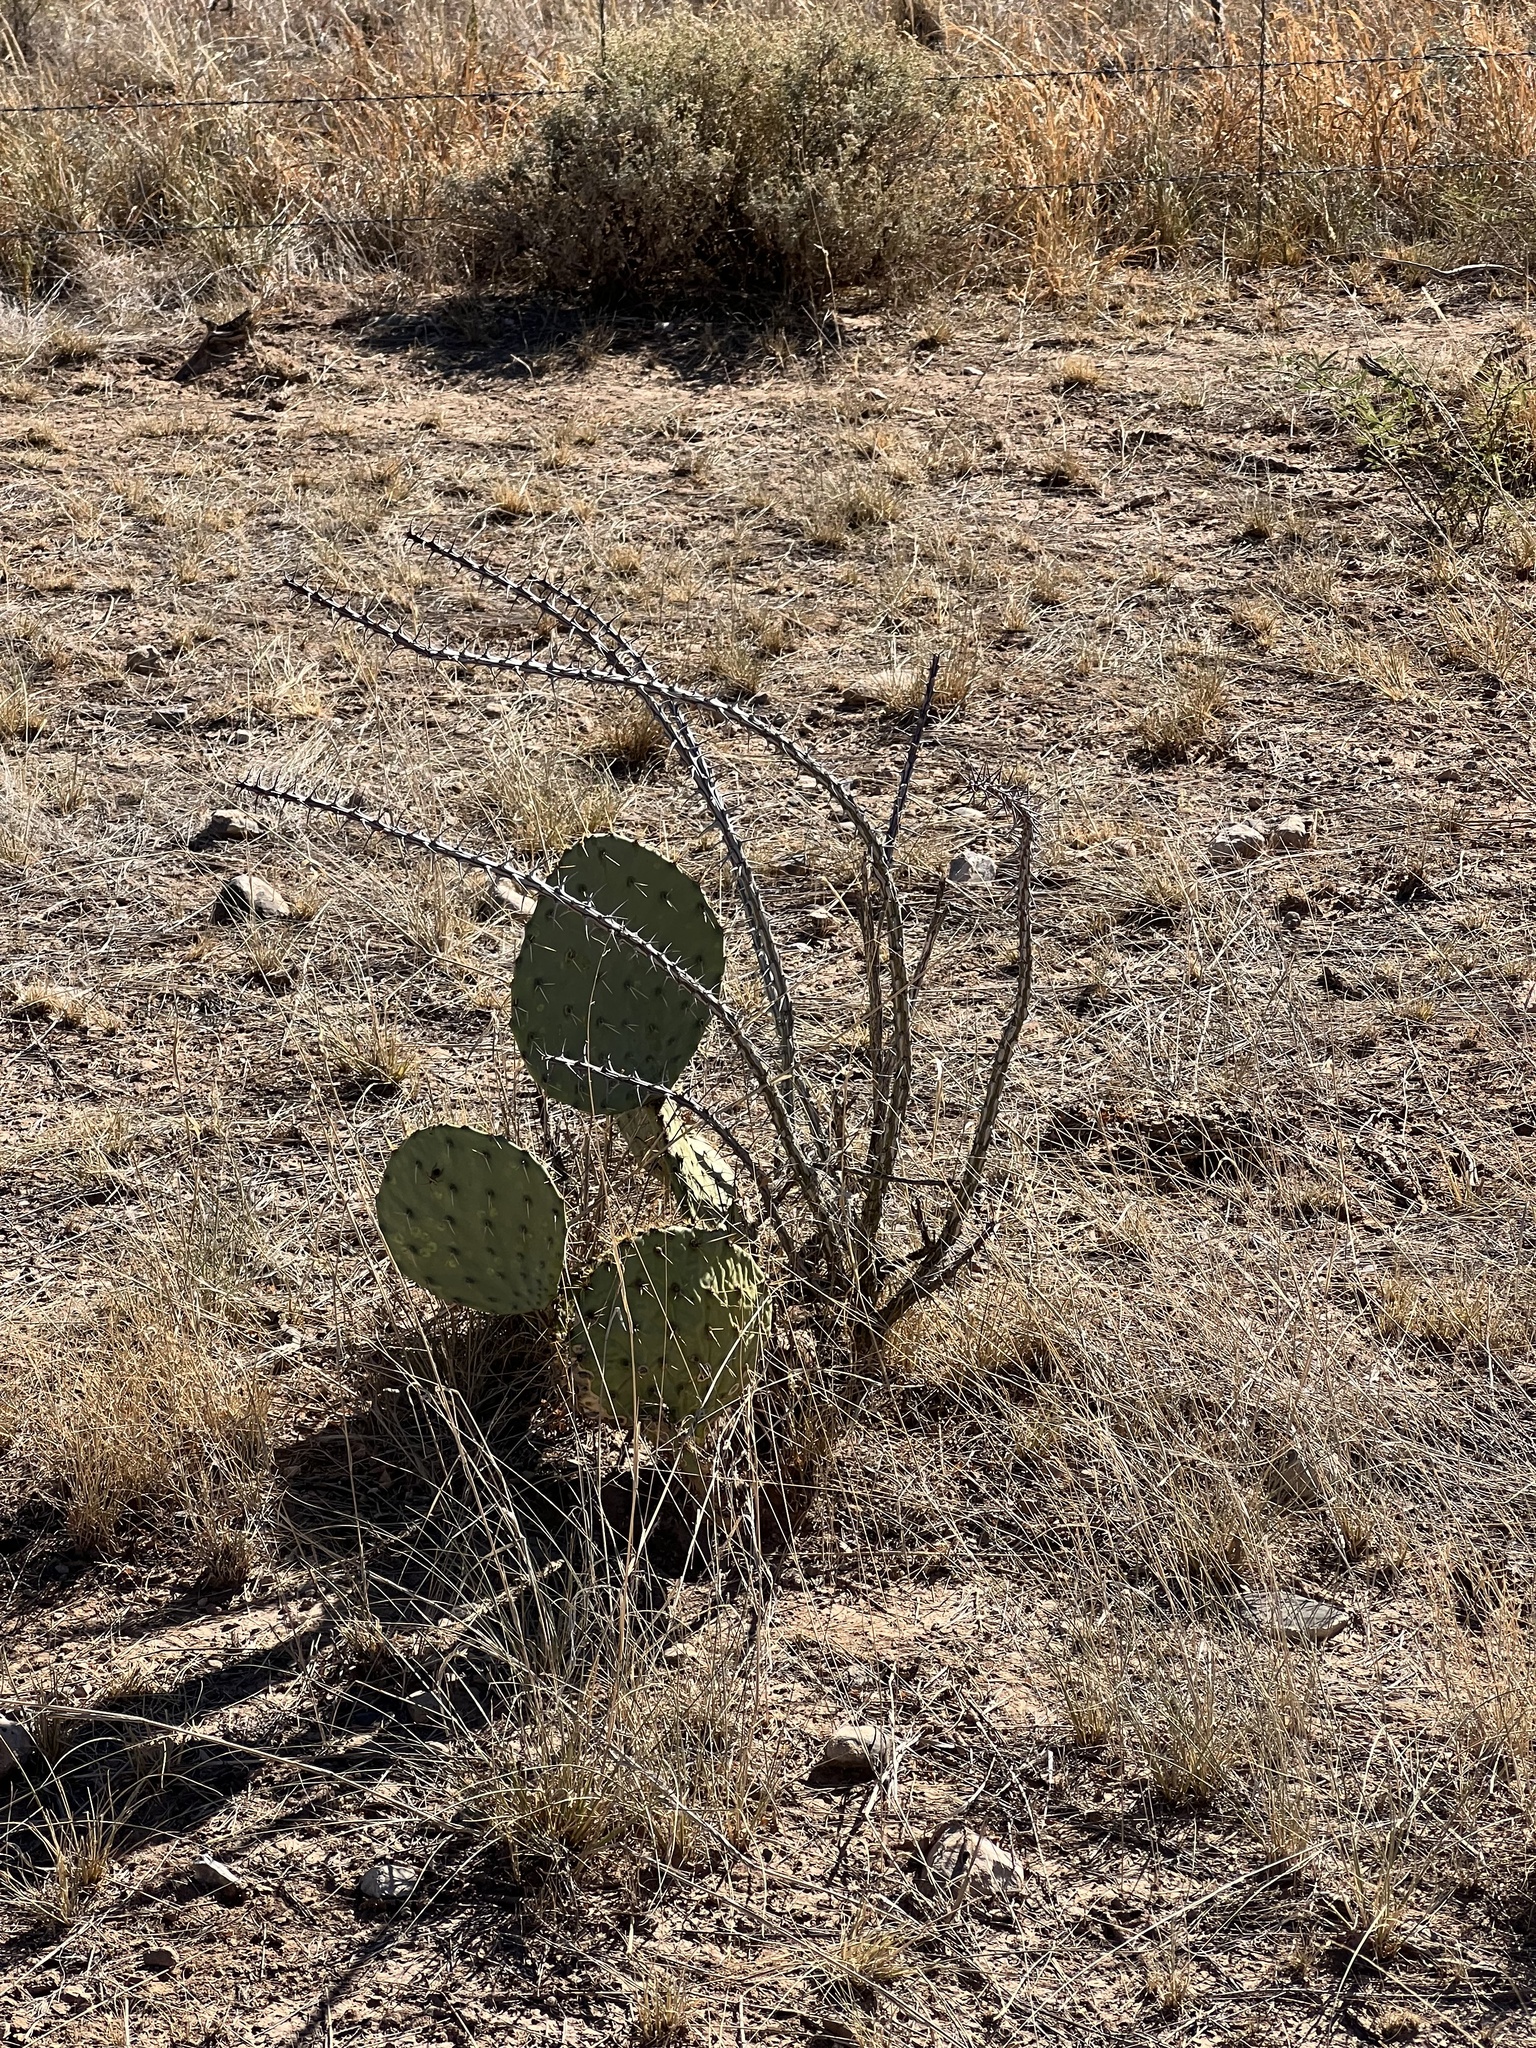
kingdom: Plantae
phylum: Tracheophyta
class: Magnoliopsida
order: Ericales
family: Fouquieriaceae
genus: Fouquieria
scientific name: Fouquieria splendens
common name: Vine-cactus
